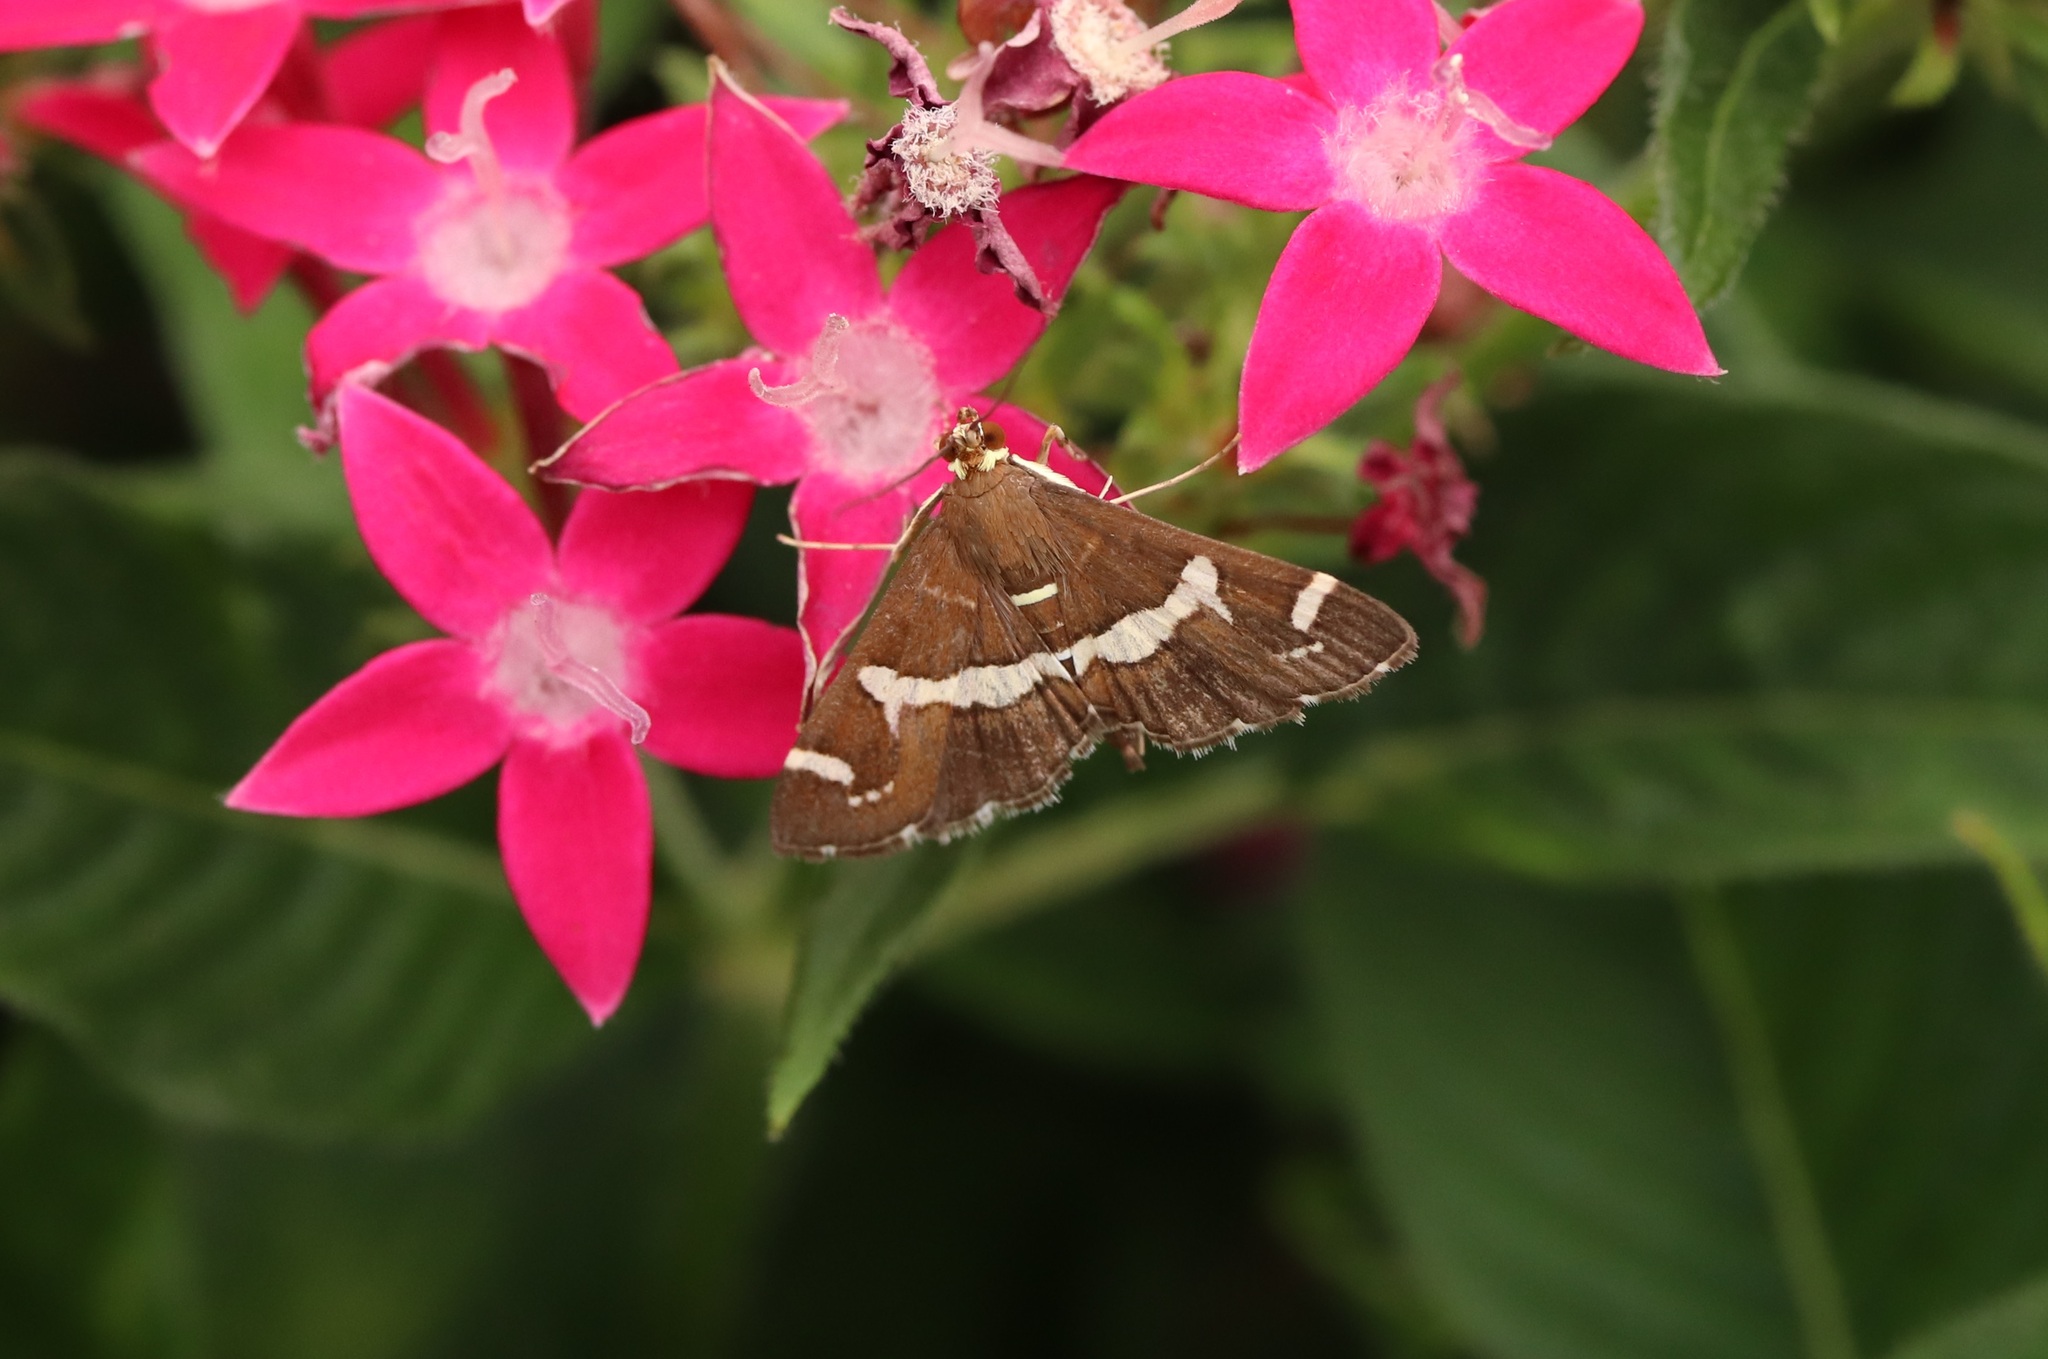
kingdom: Animalia
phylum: Arthropoda
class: Insecta
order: Lepidoptera
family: Crambidae
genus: Spoladea
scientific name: Spoladea recurvalis
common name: Beet webworm moth
